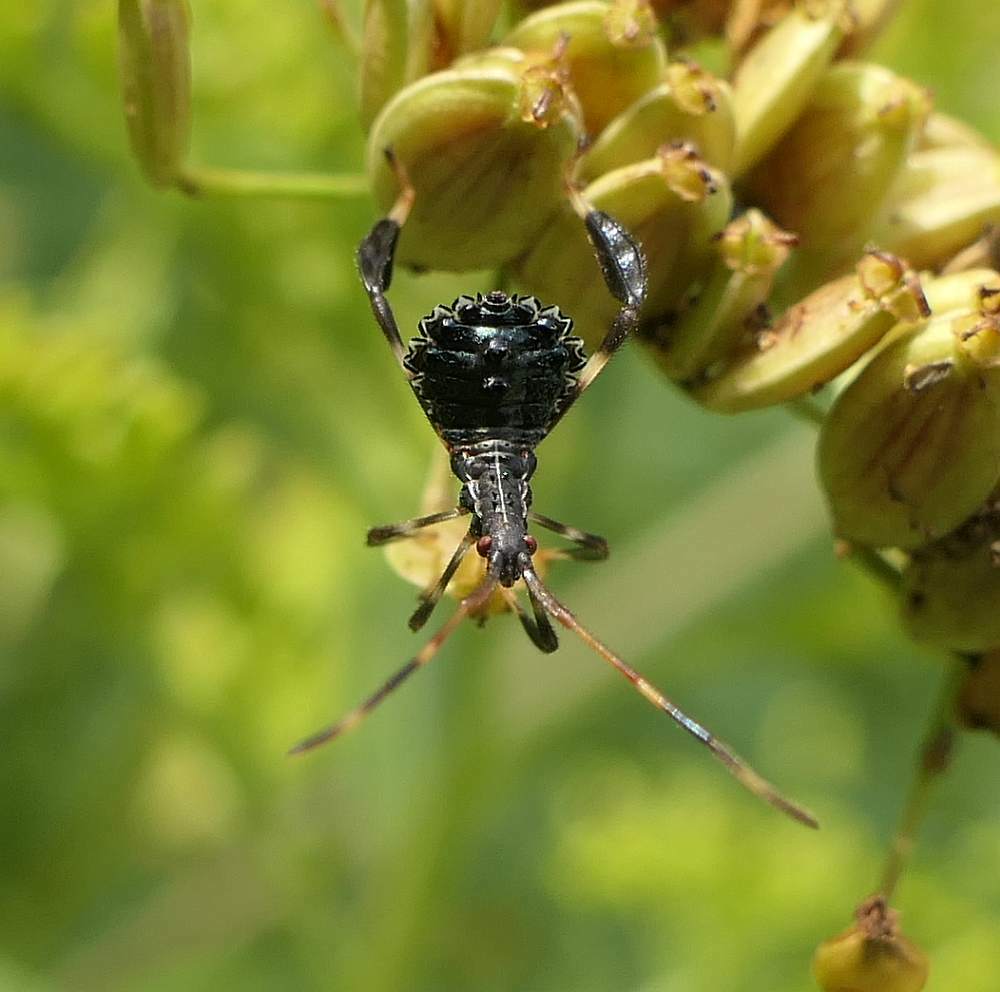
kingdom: Animalia
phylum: Arthropoda
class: Insecta
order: Hemiptera
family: Coreidae
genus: Acanthocephala
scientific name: Acanthocephala terminalis
